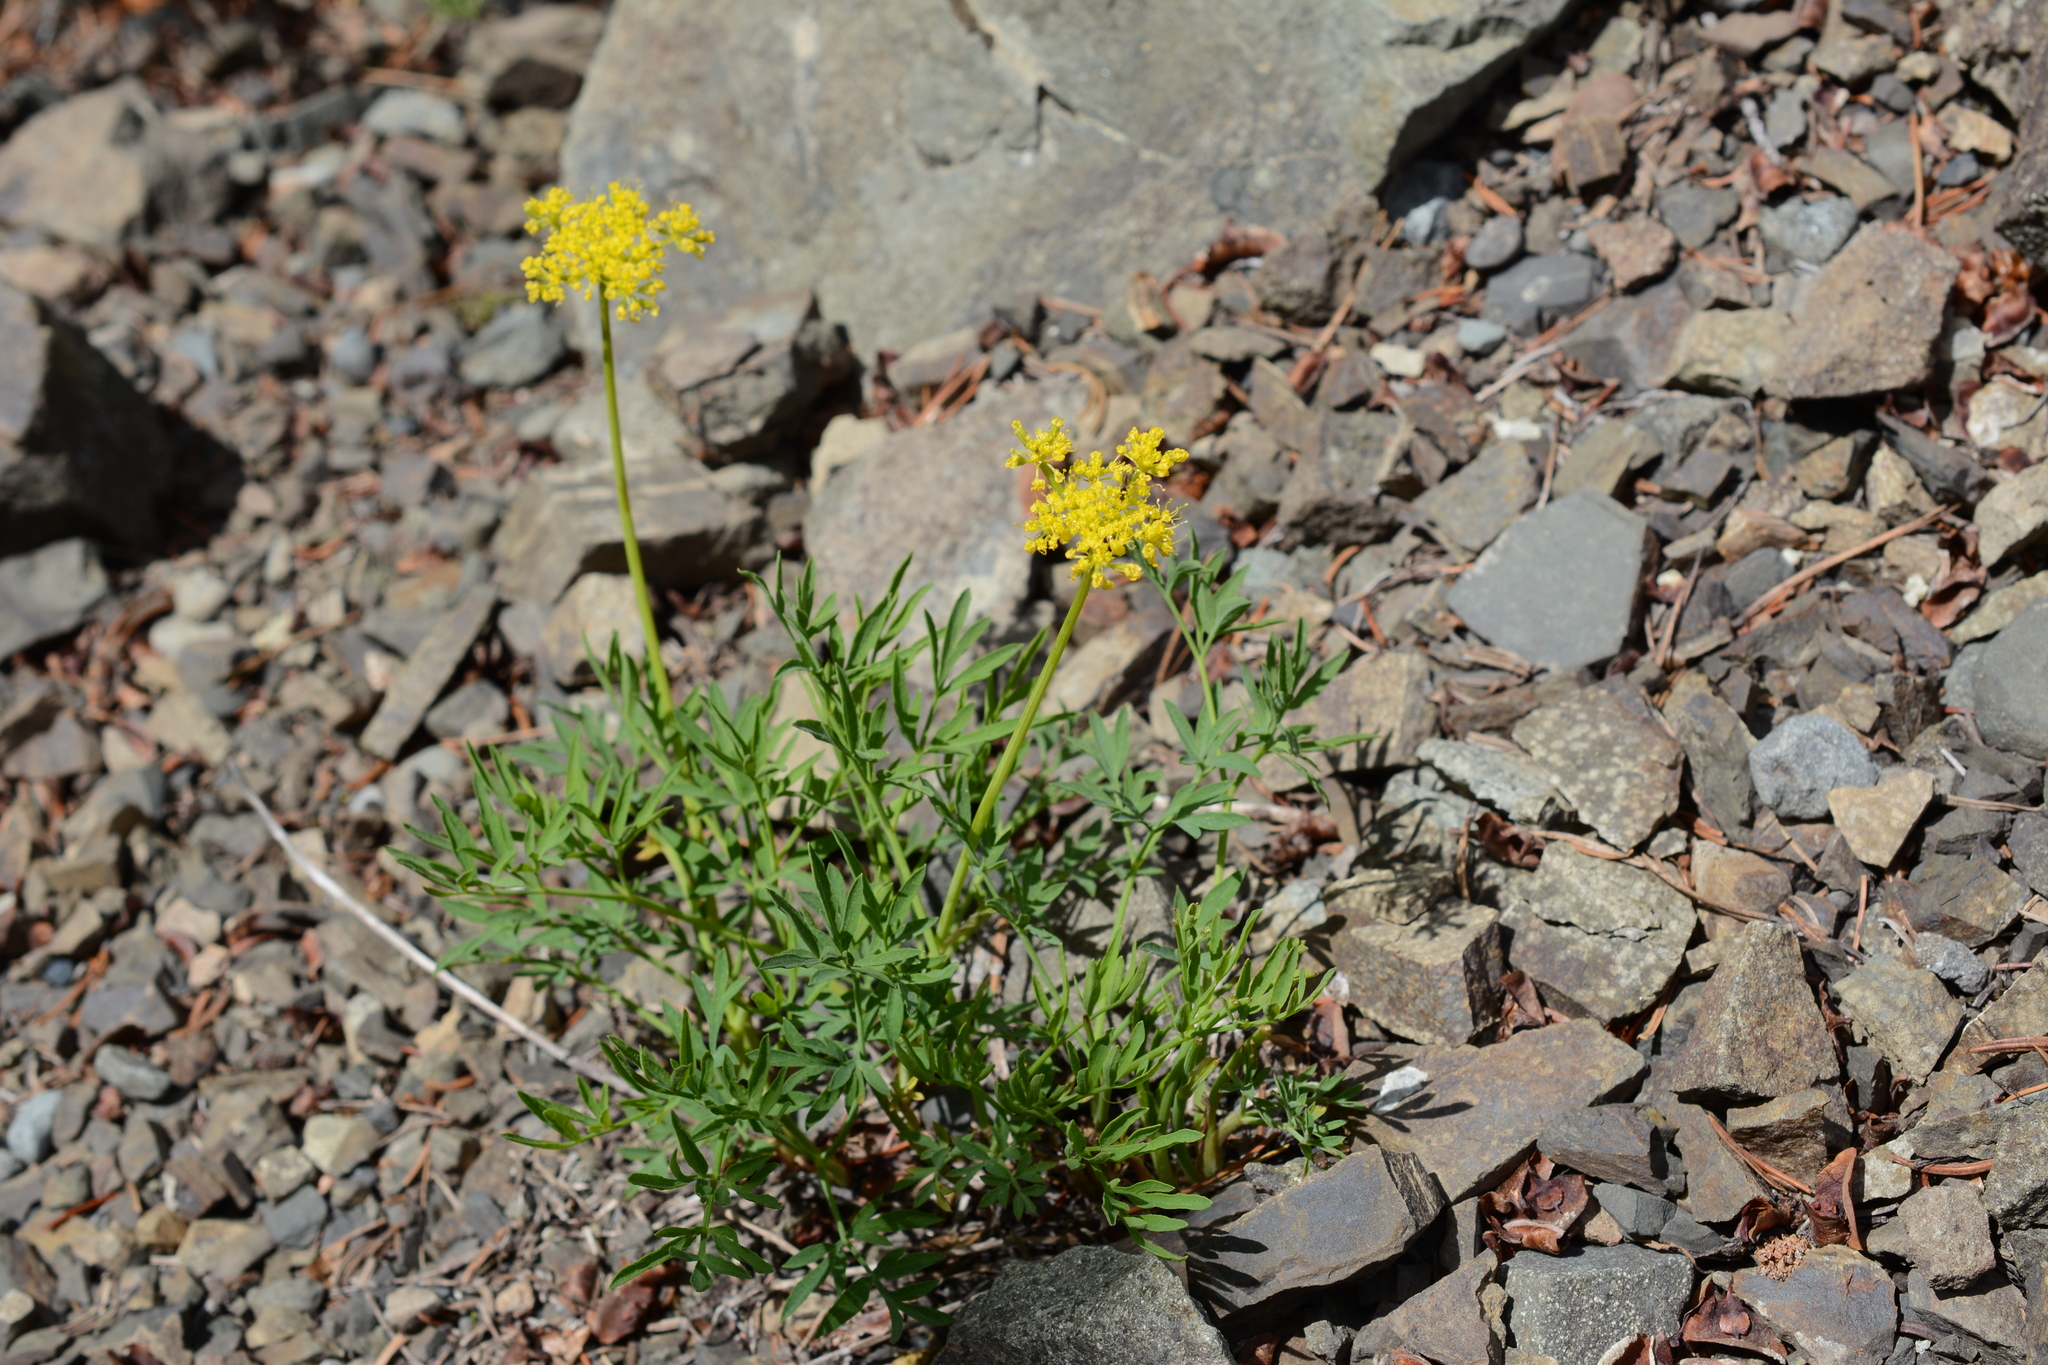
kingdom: Plantae
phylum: Tracheophyta
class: Magnoliopsida
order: Apiales
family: Apiaceae
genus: Lomatium
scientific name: Lomatium brandegeei
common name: Brandegee's desert-parsley
